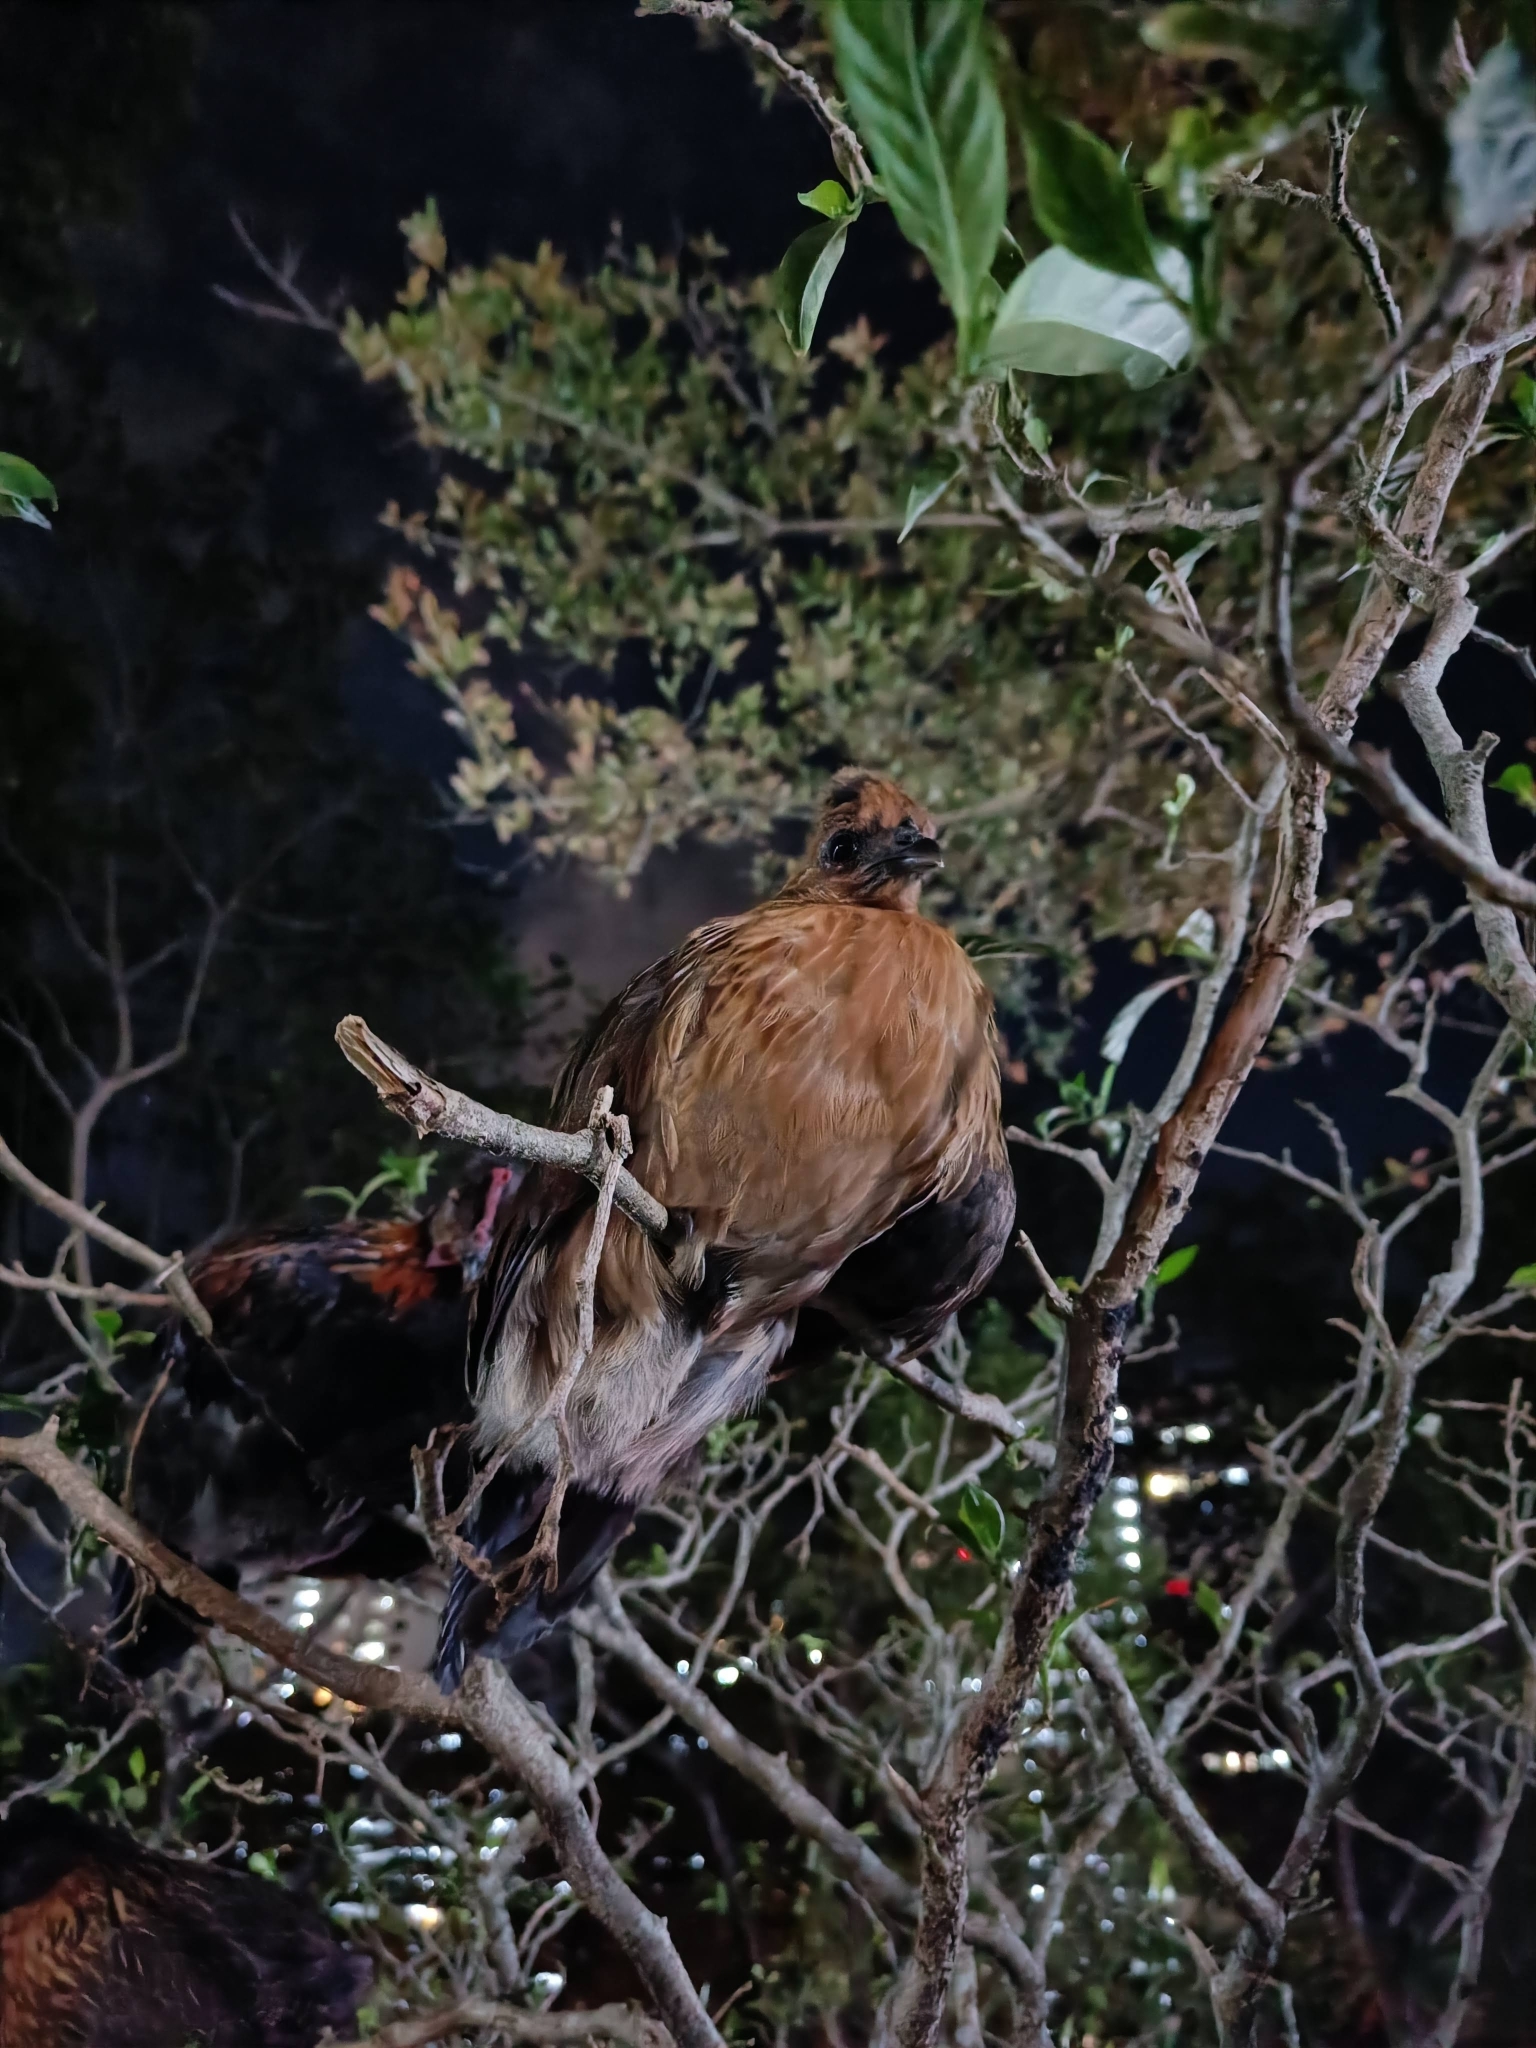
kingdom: Animalia
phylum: Chordata
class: Aves
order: Galliformes
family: Phasianidae
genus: Gallus
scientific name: Gallus gallus
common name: Red junglefowl
